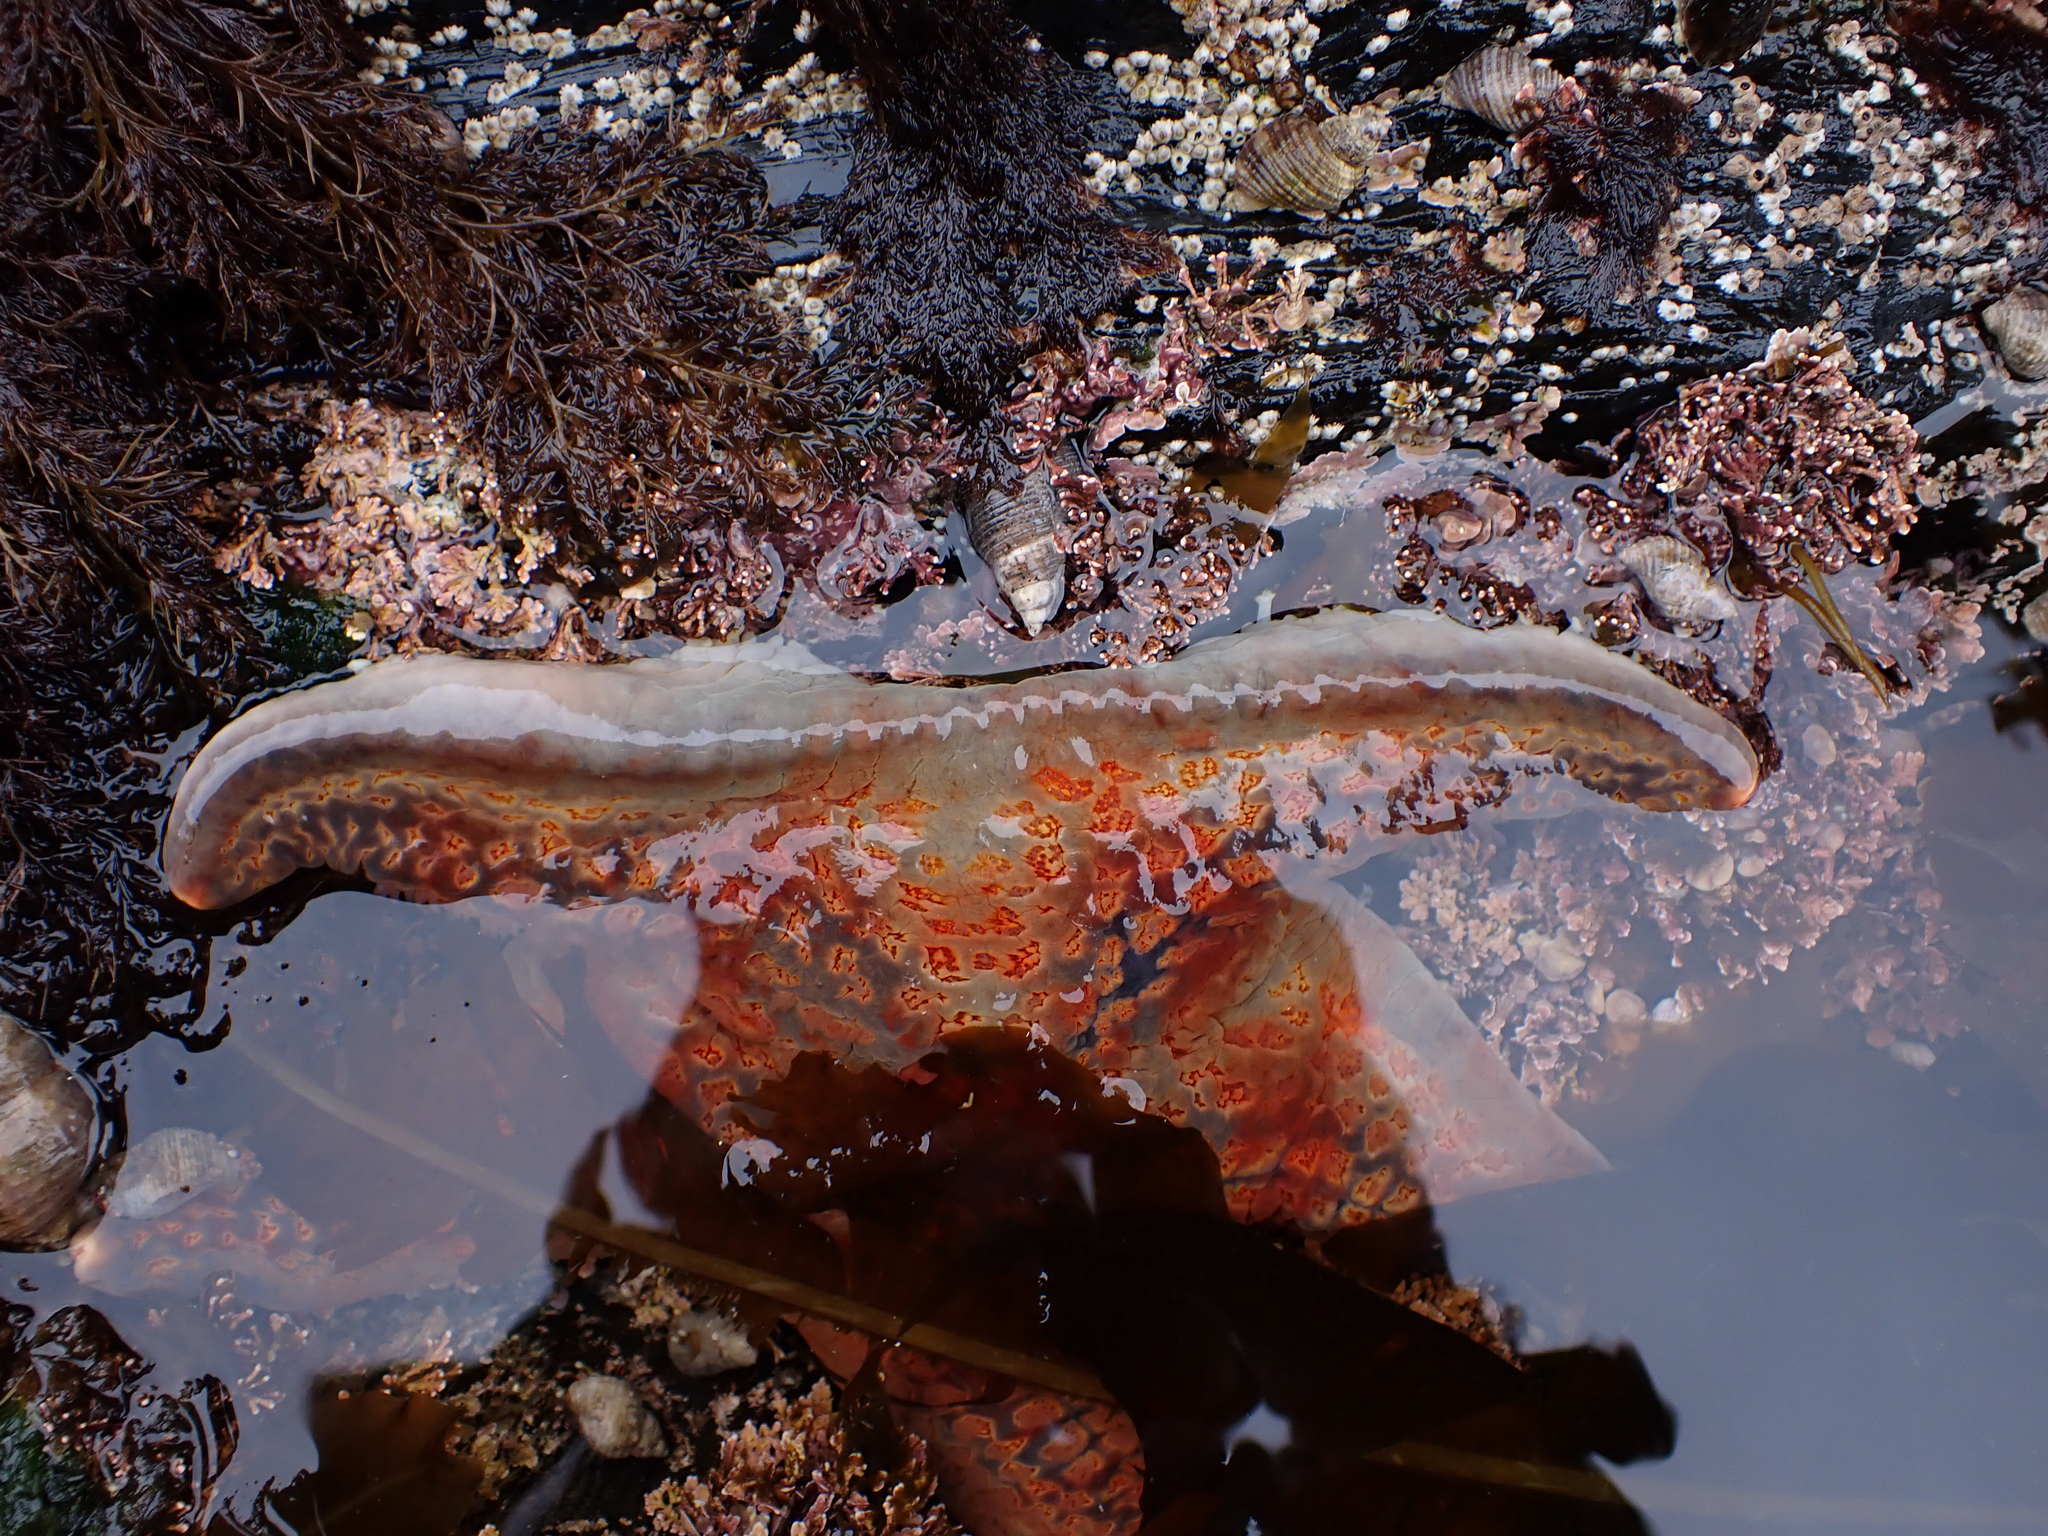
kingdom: Animalia
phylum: Echinodermata
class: Asteroidea
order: Valvatida
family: Asteropseidae
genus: Dermasterias
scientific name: Dermasterias imbricata
